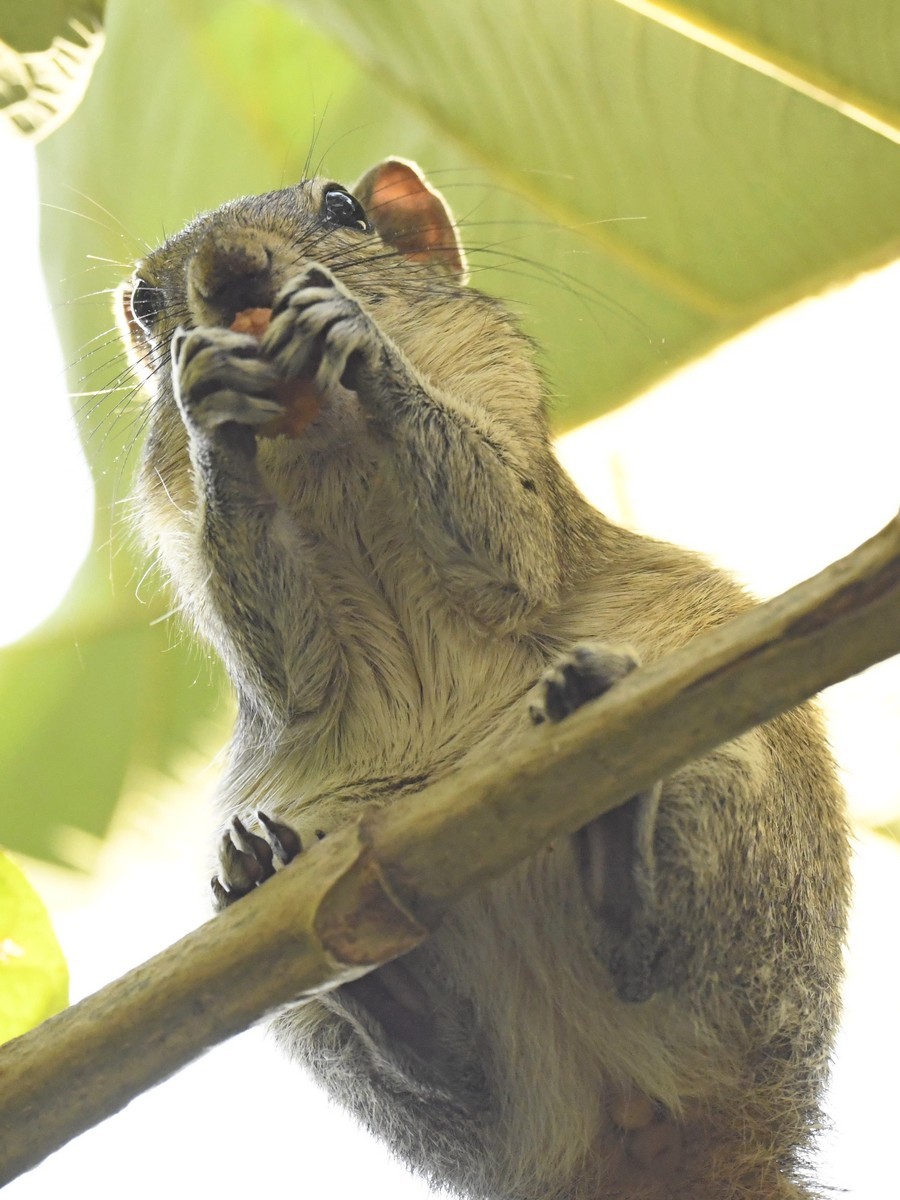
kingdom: Animalia
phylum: Chordata
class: Mammalia
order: Rodentia
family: Sciuridae
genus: Funambulus
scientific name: Funambulus palmarum
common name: Indian palm squirrel
